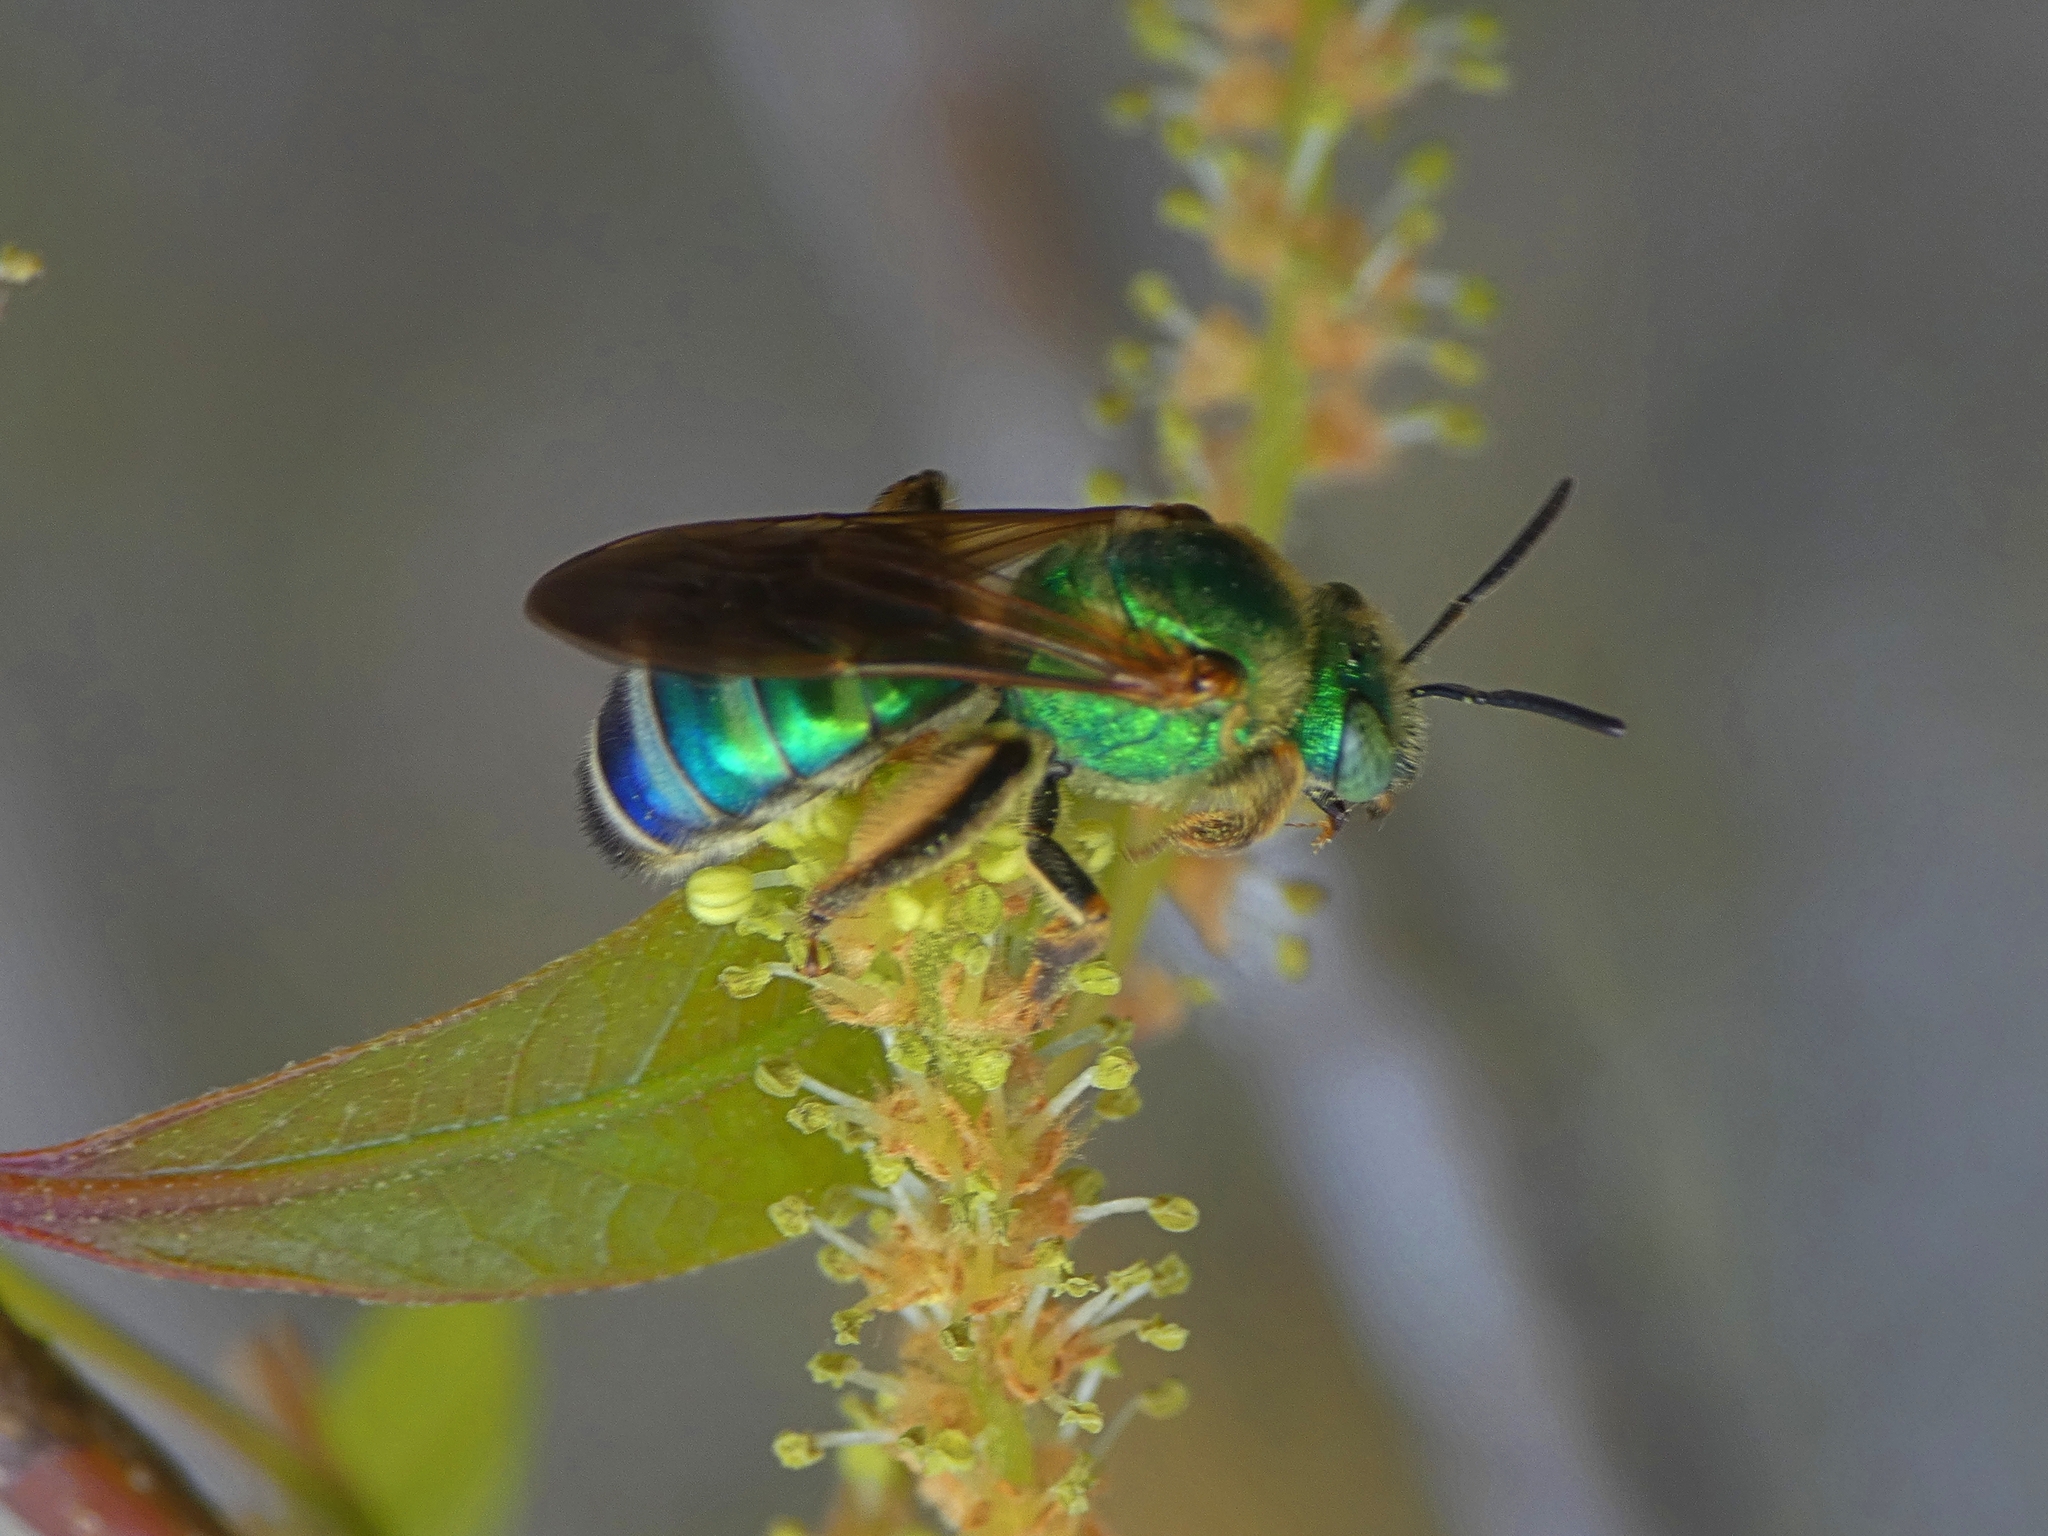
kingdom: Animalia
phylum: Arthropoda
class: Insecta
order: Hymenoptera
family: Halictidae
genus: Agapostemon
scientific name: Agapostemon splendens
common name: Brown-winged striped sweat bee
